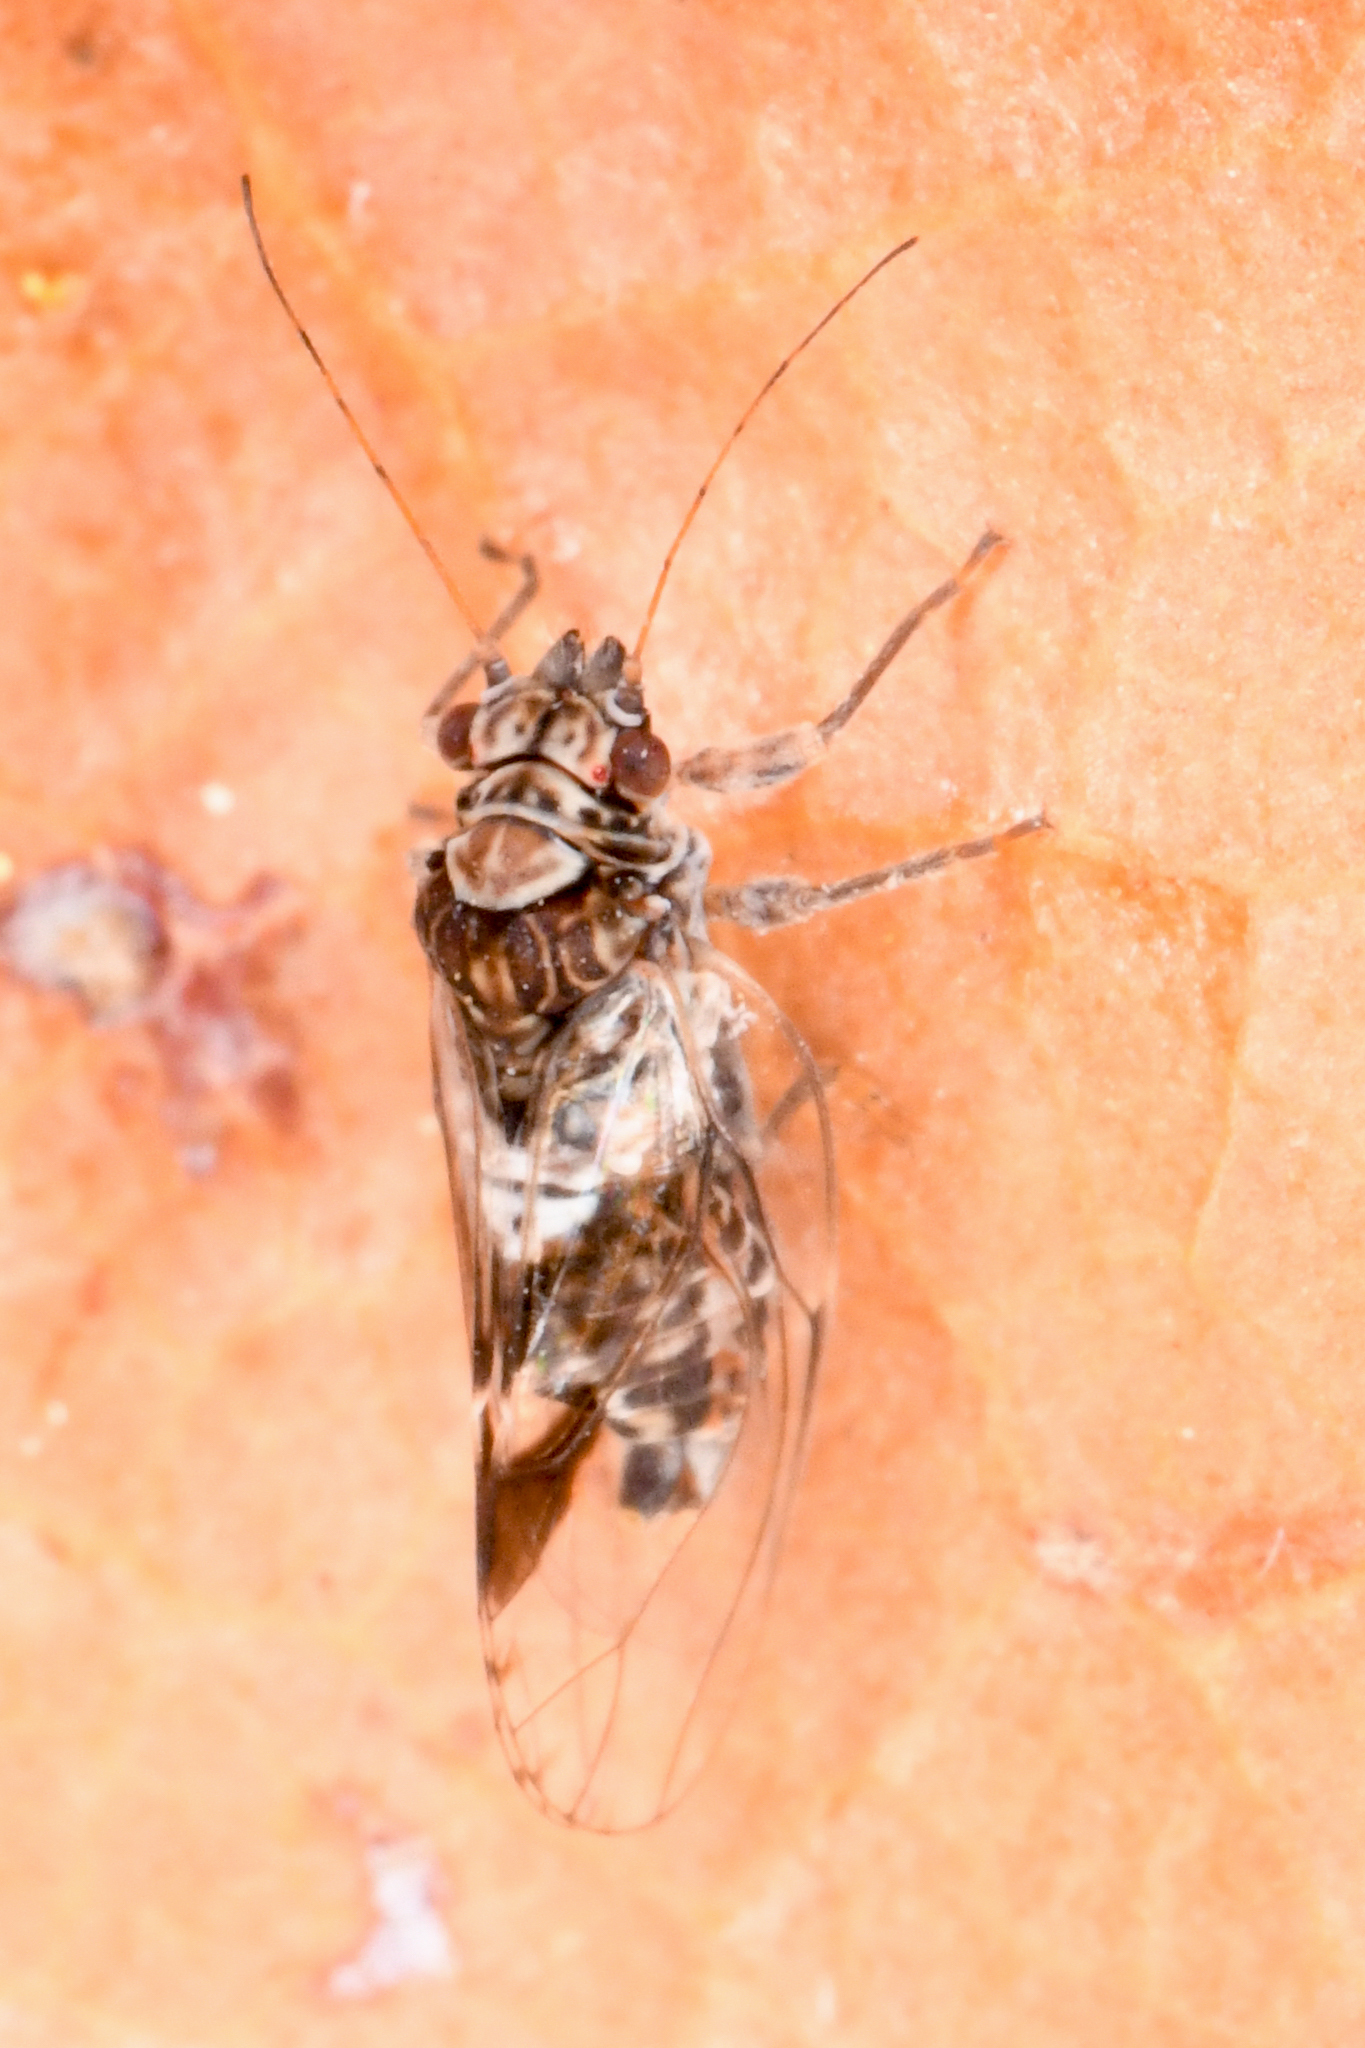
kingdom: Animalia
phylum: Arthropoda
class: Insecta
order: Hemiptera
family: Psyllidae
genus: Cacopsylla
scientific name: Cacopsylla notapennis
